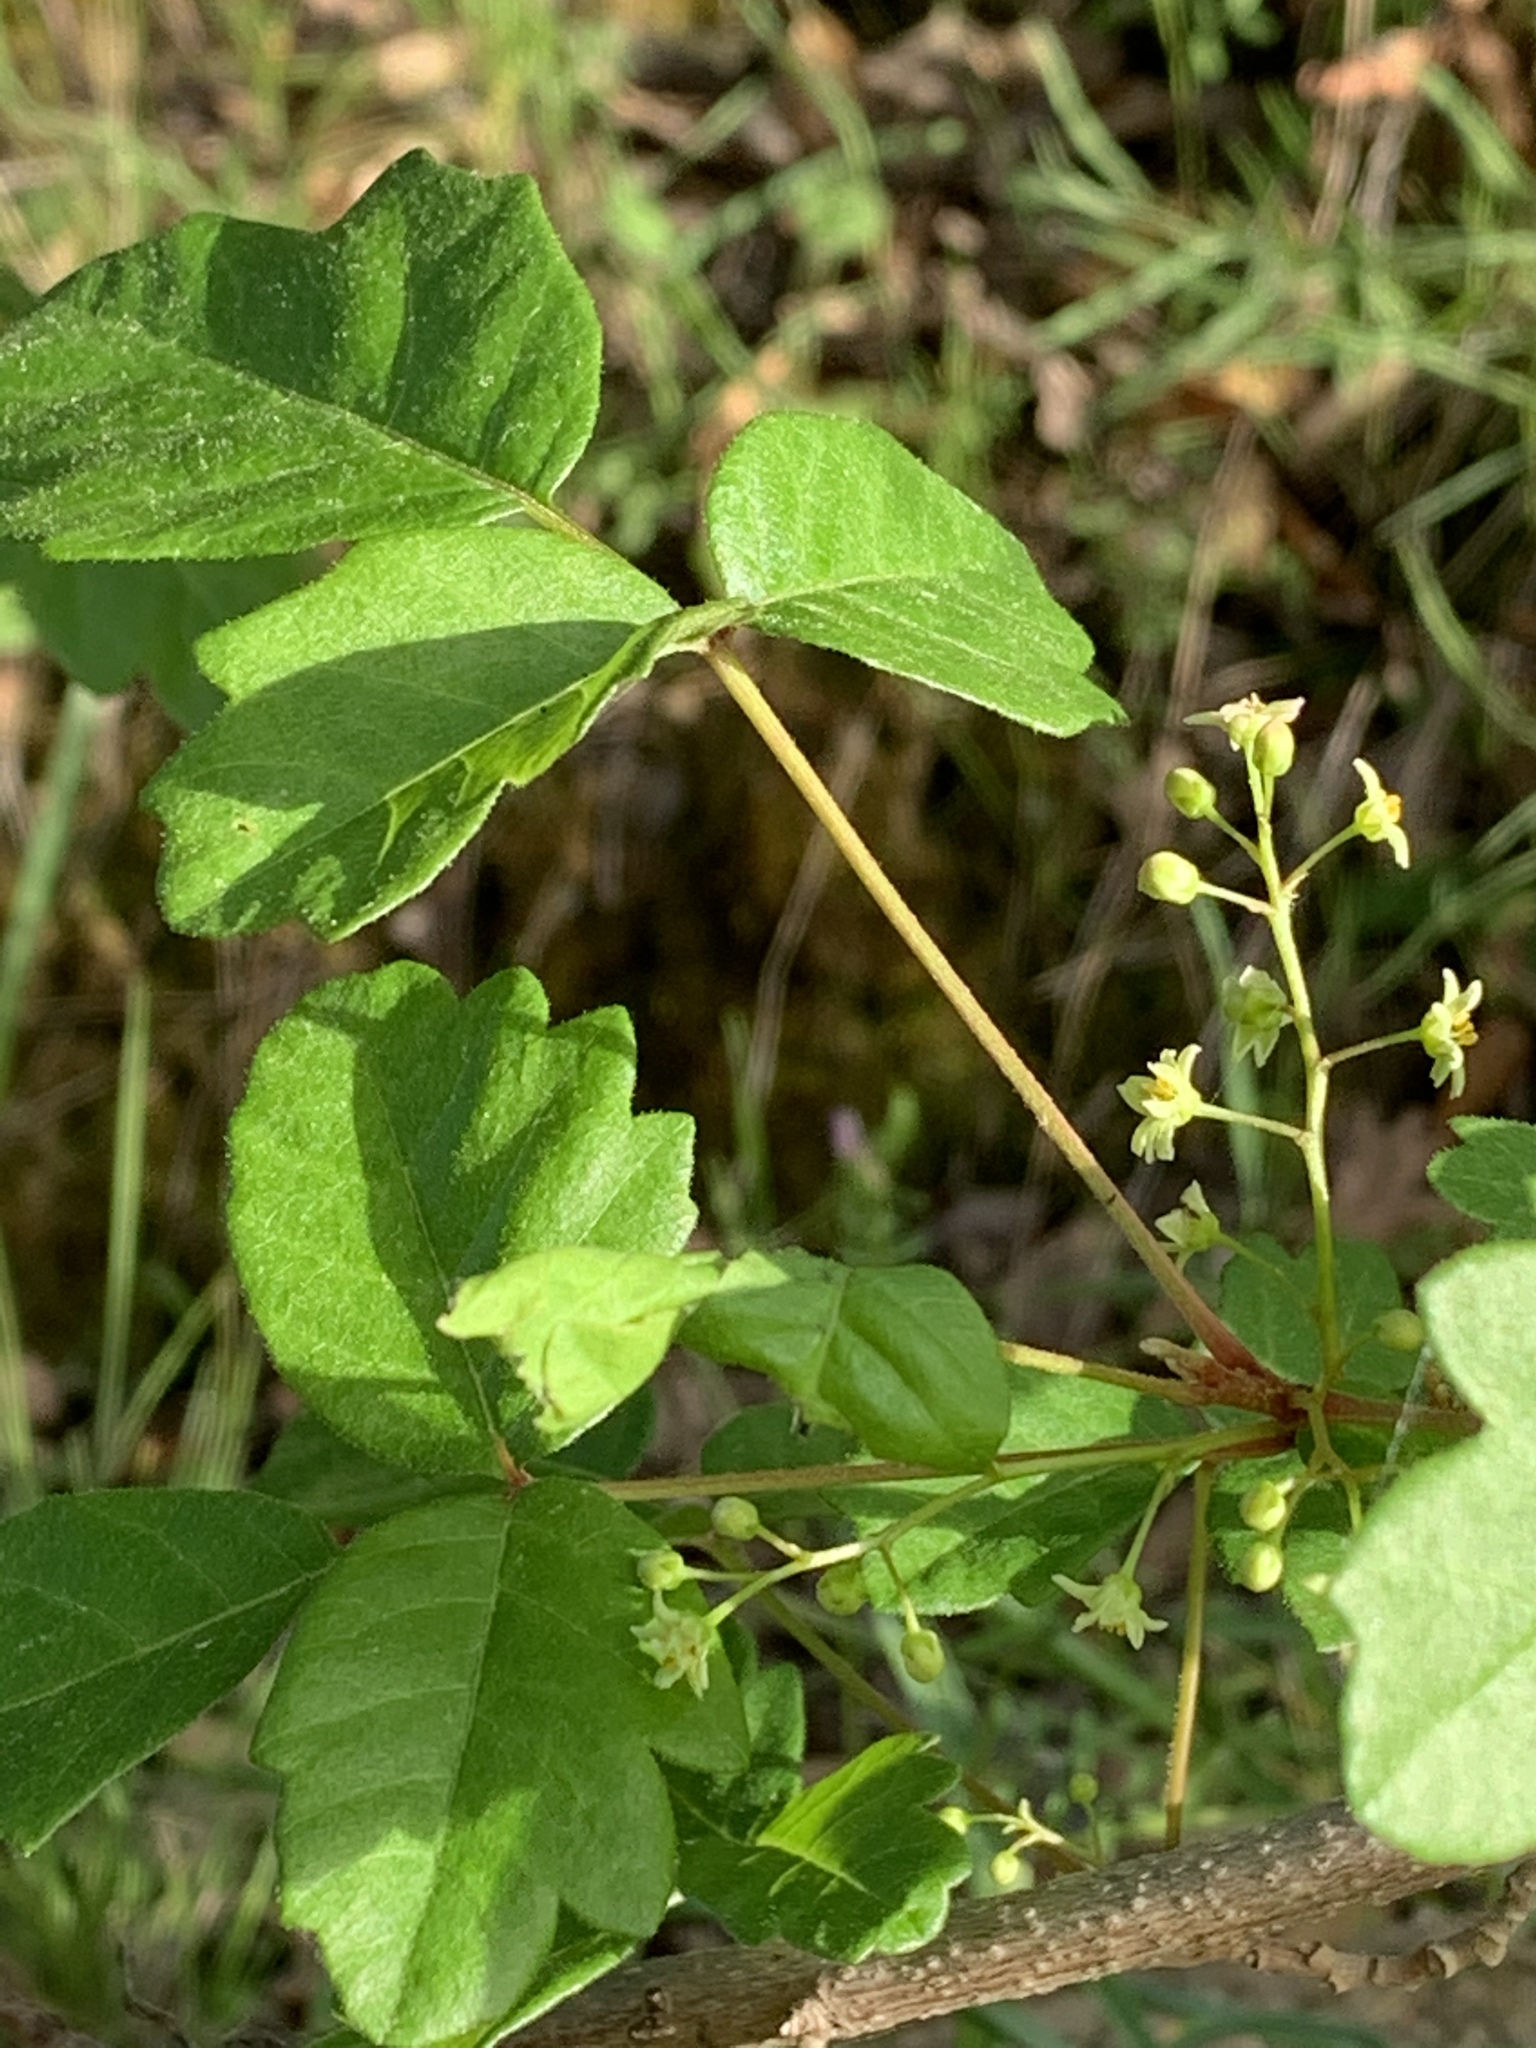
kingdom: Plantae
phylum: Tracheophyta
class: Magnoliopsida
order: Sapindales
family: Anacardiaceae
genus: Toxicodendron
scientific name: Toxicodendron diversilobum
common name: Pacific poison-oak
